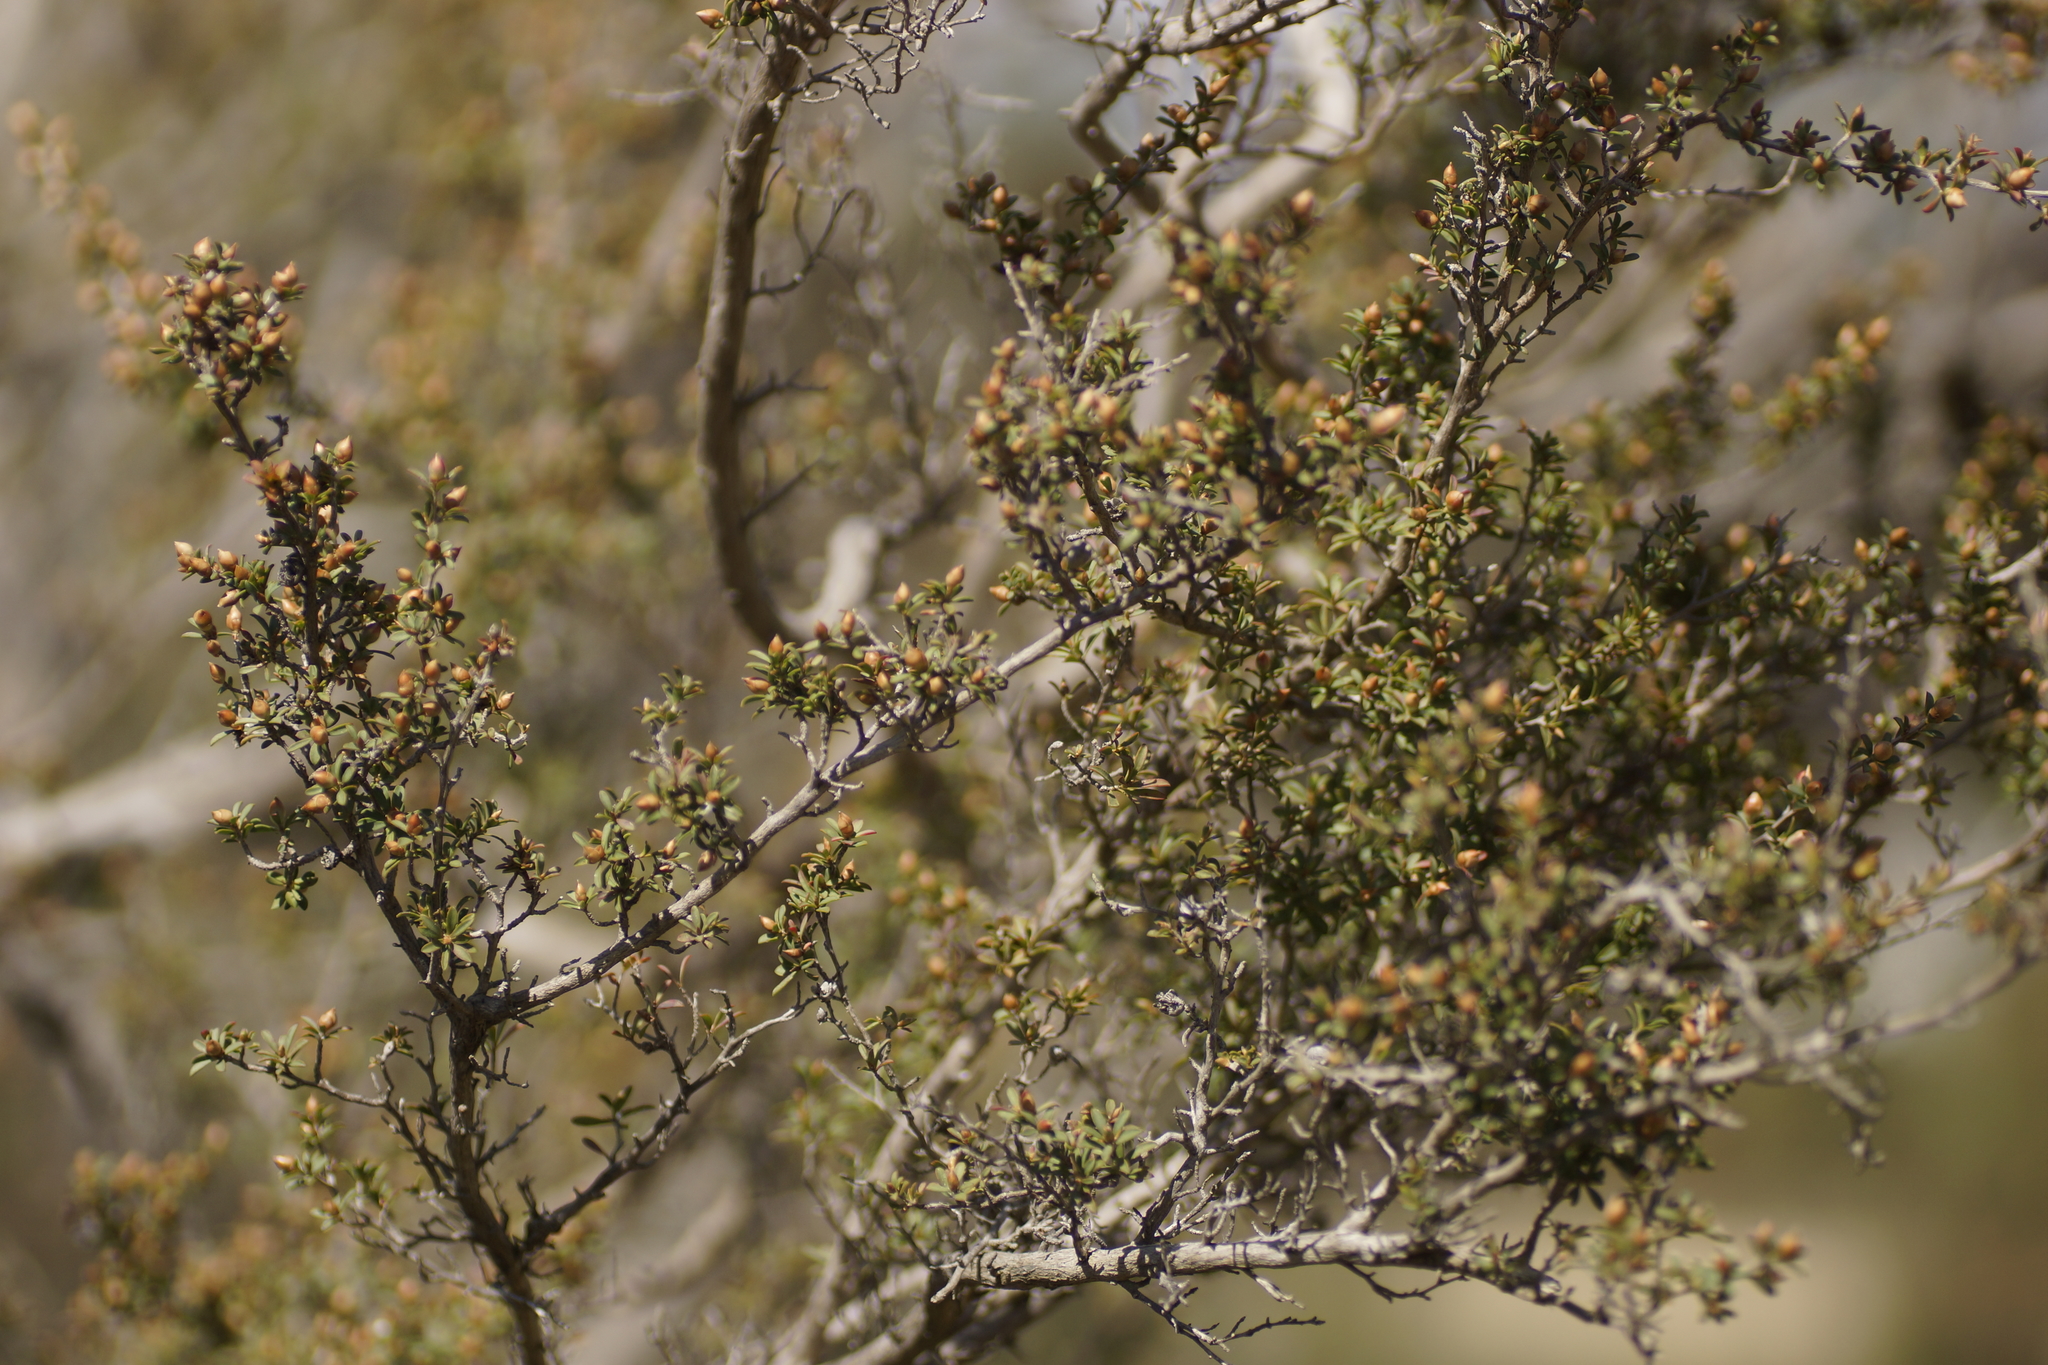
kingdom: Plantae
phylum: Tracheophyta
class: Magnoliopsida
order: Myrtales
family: Myrtaceae
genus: Leptospermum
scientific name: Leptospermum myrsinoides
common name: Heath teatree
